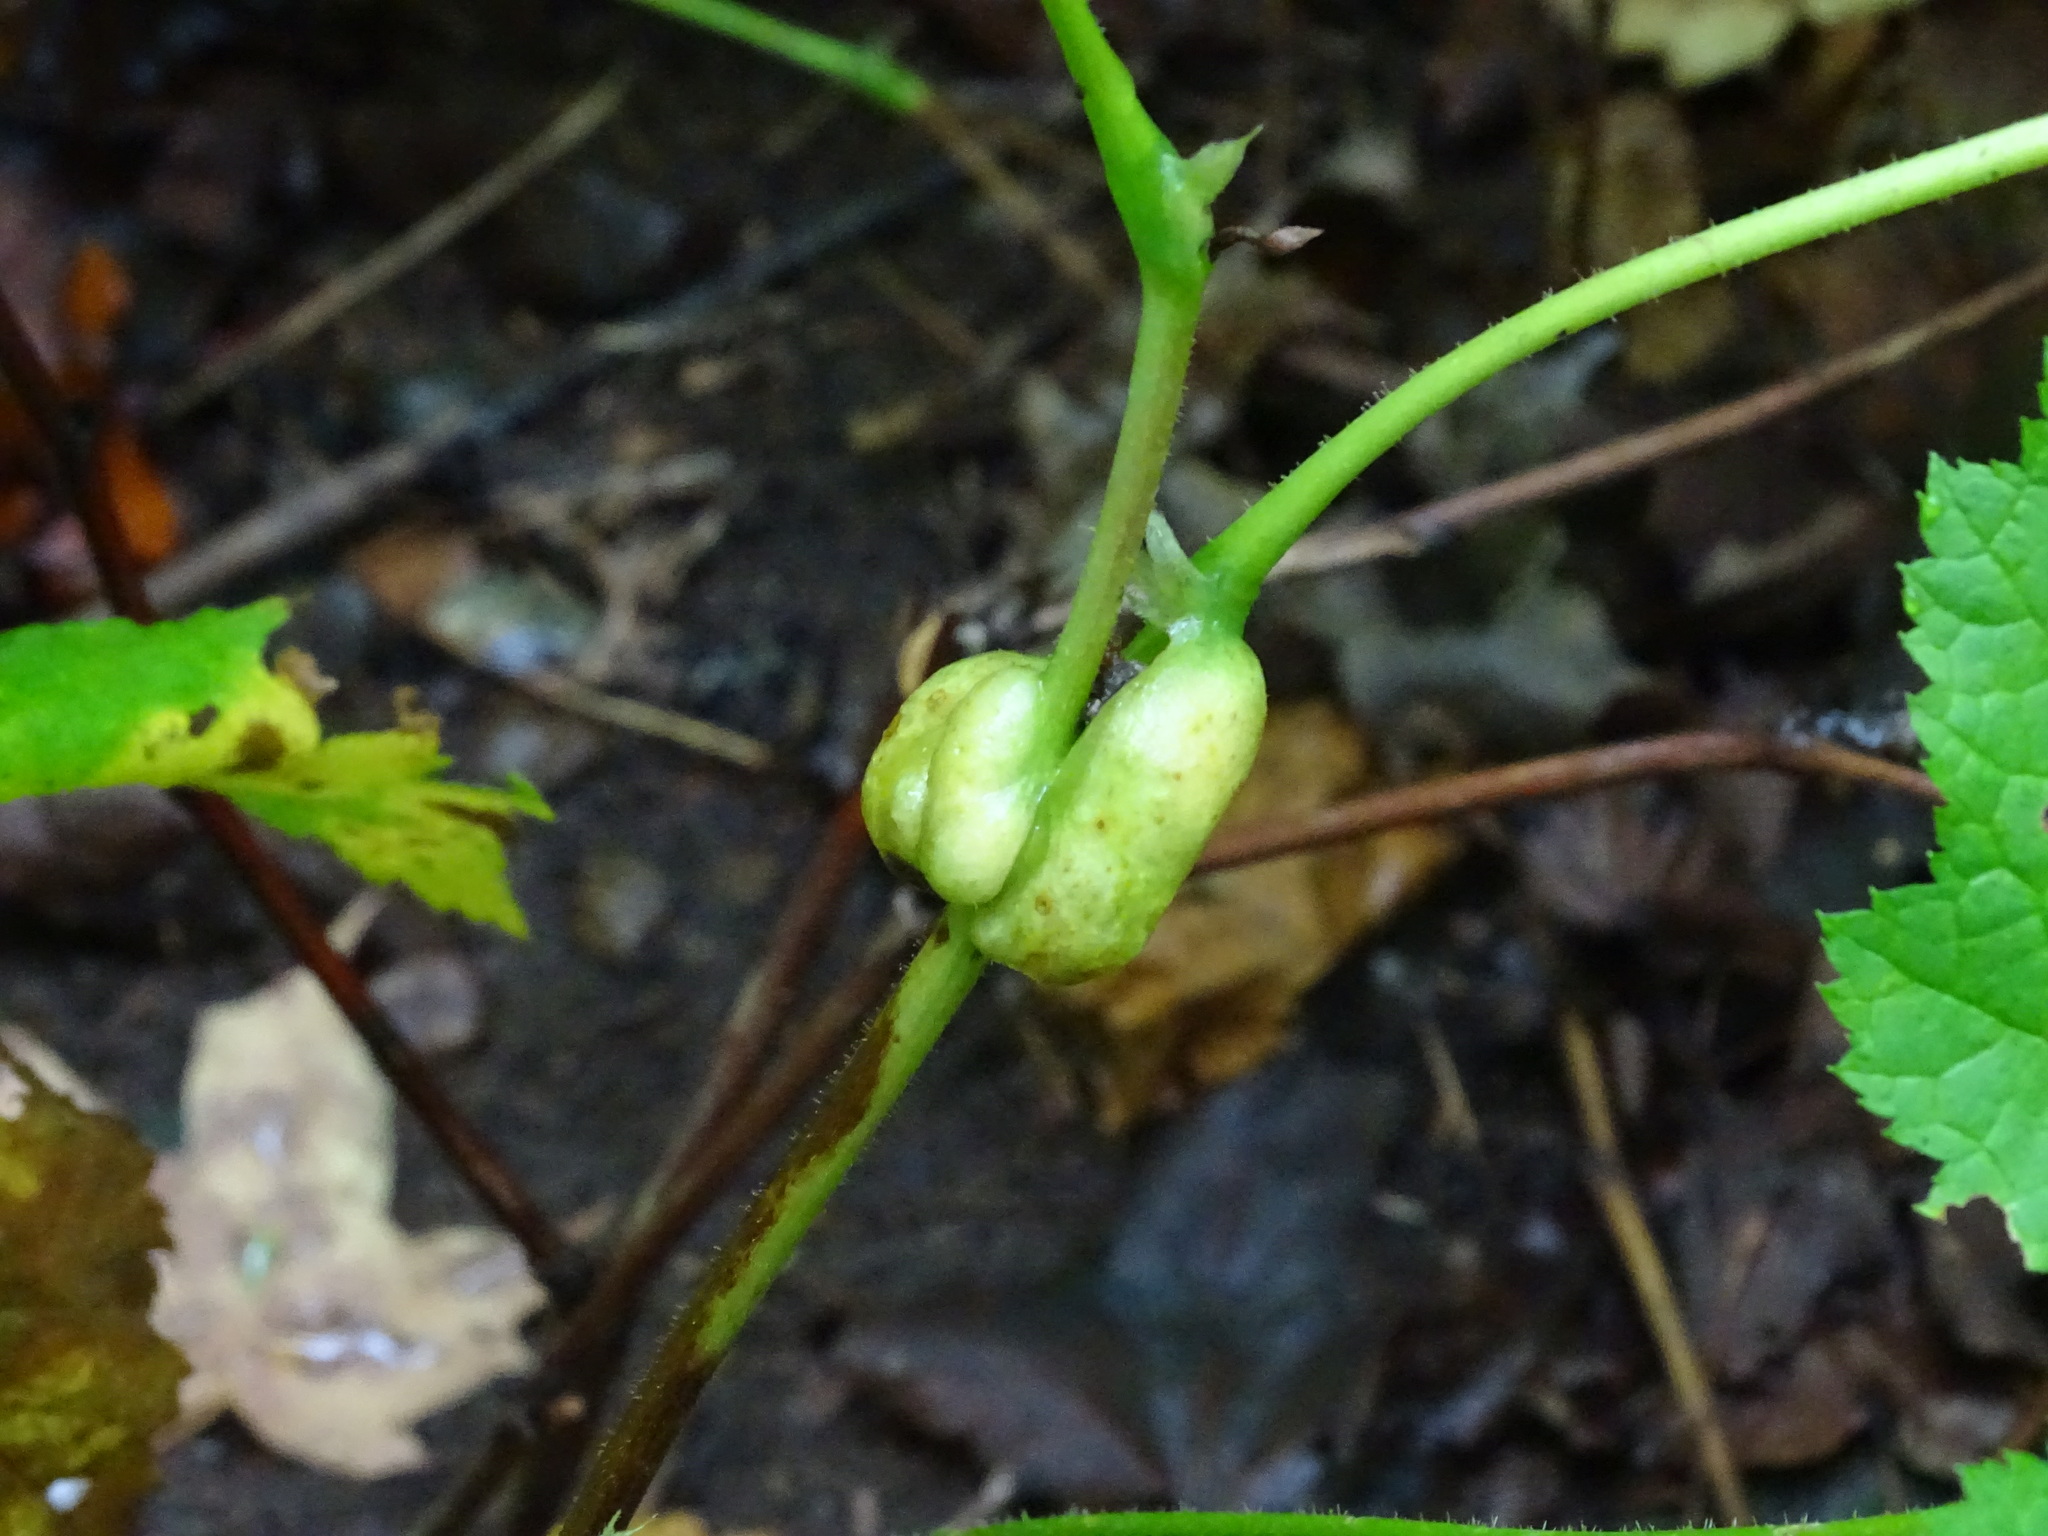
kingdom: Animalia
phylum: Arthropoda
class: Insecta
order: Hymenoptera
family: Cynipidae
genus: Diastrophus
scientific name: Diastrophus
